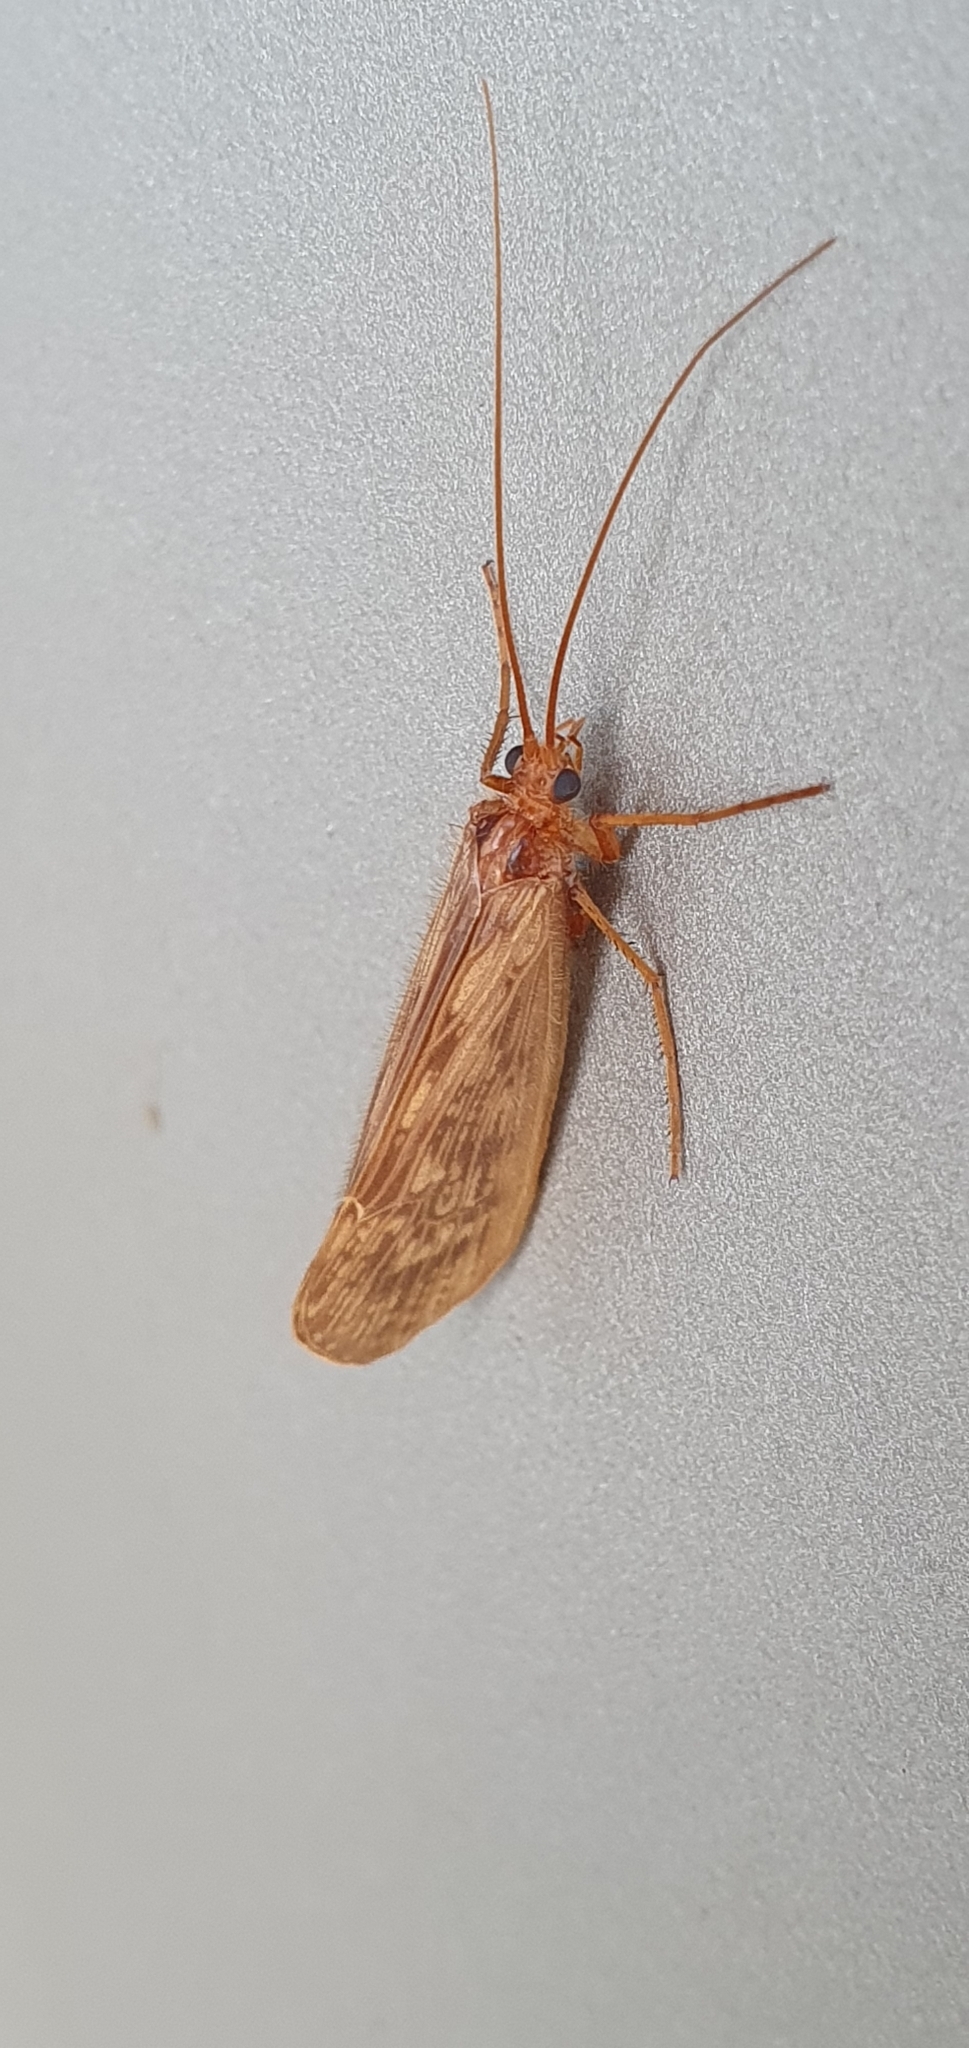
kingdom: Animalia
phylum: Arthropoda
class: Insecta
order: Trichoptera
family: Limnephilidae
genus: Halesus
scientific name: Halesus digitatus
